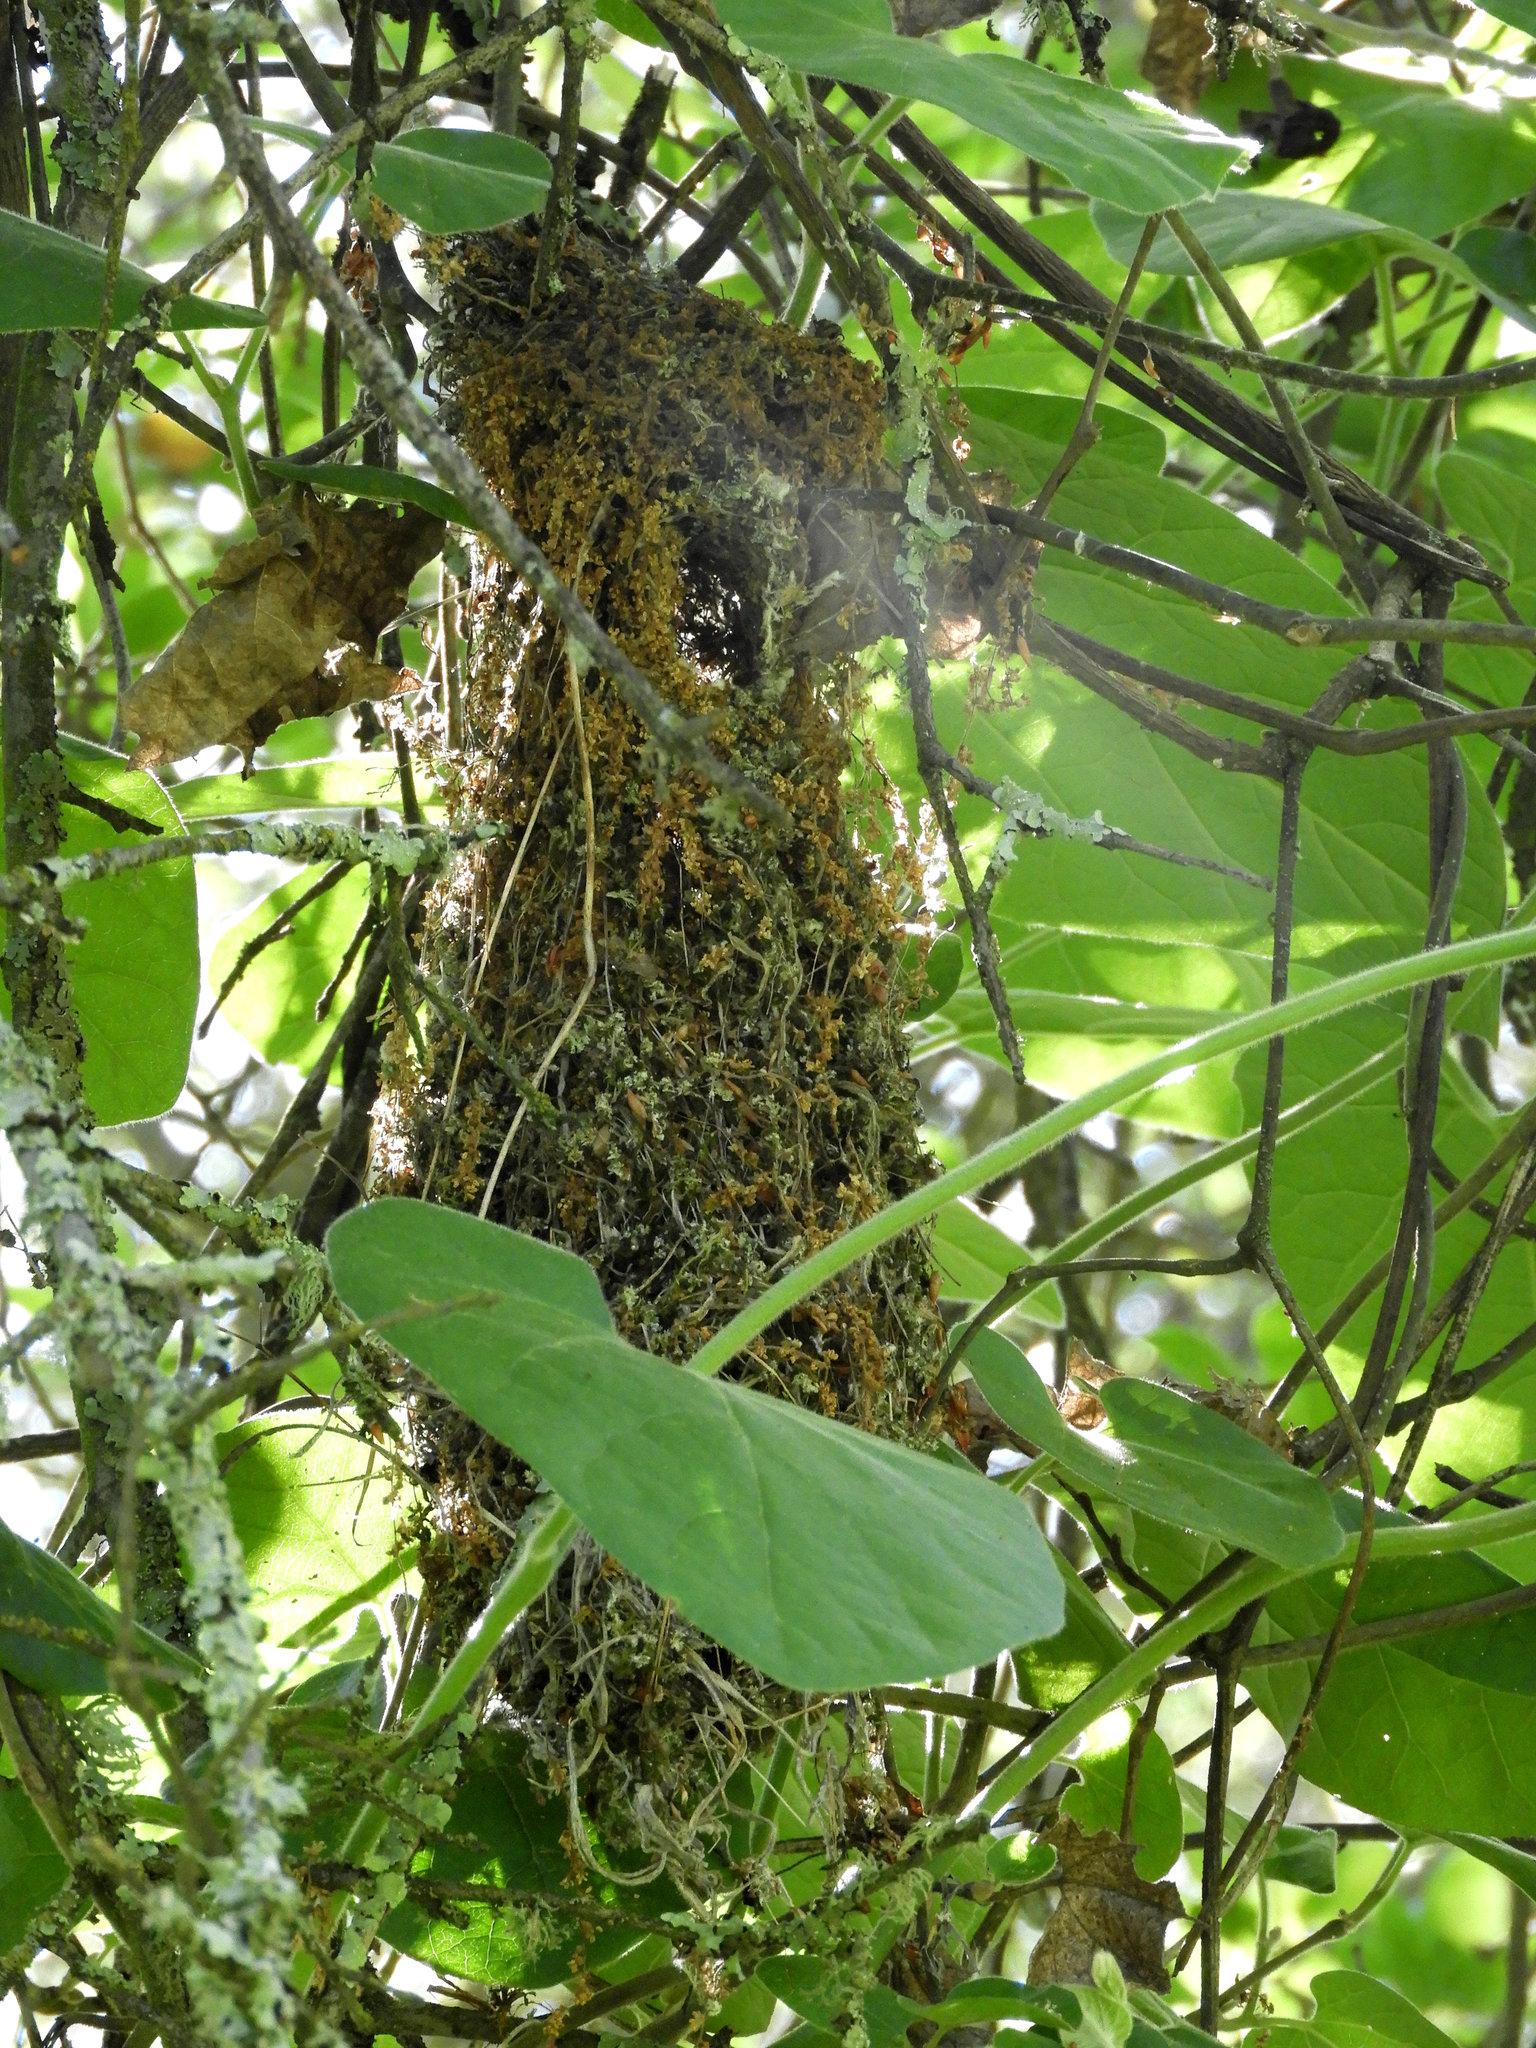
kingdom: Animalia
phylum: Chordata
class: Aves
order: Passeriformes
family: Aegithalidae
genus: Psaltriparus
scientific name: Psaltriparus minimus
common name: American bushtit
